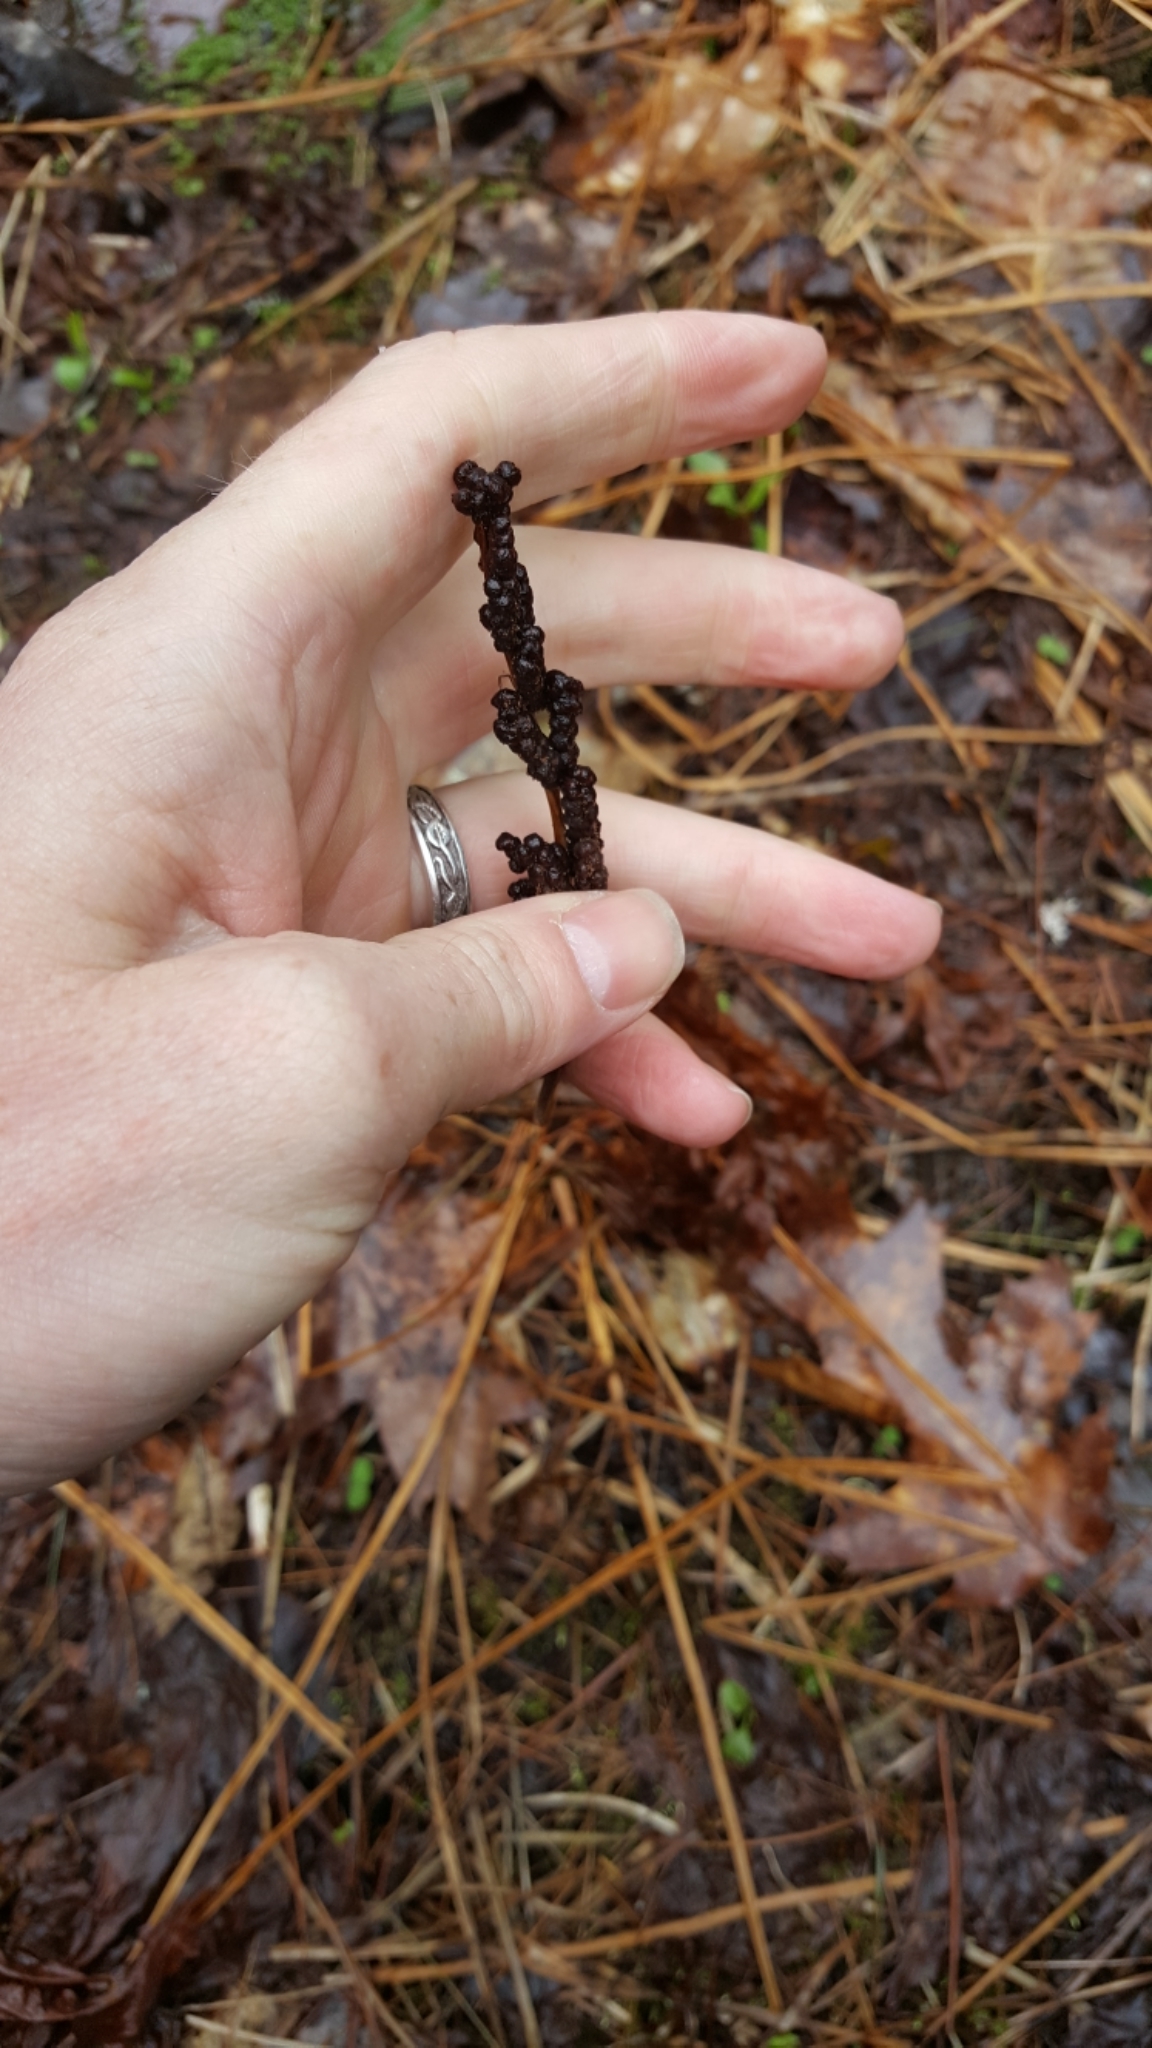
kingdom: Plantae
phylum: Tracheophyta
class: Polypodiopsida
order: Polypodiales
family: Onocleaceae
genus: Onoclea
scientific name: Onoclea sensibilis
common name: Sensitive fern
